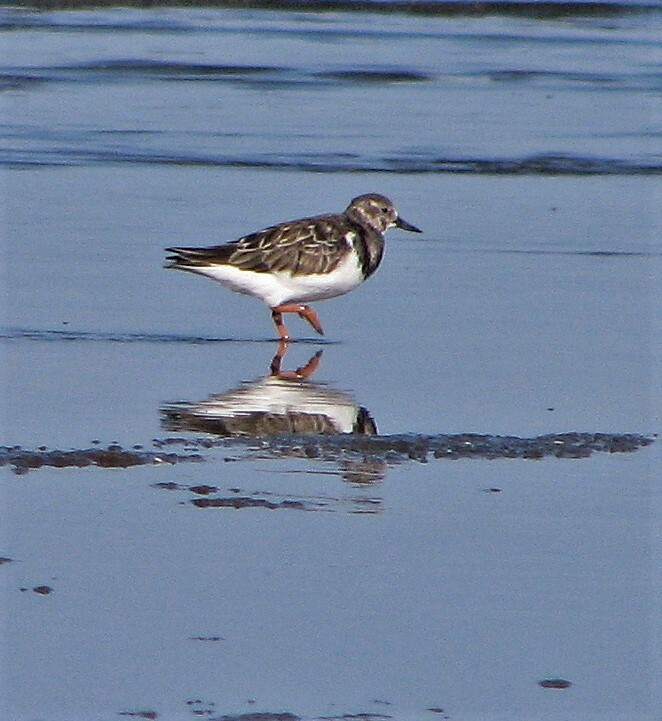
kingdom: Animalia
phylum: Chordata
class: Aves
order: Charadriiformes
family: Scolopacidae
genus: Arenaria
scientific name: Arenaria interpres
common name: Ruddy turnstone
